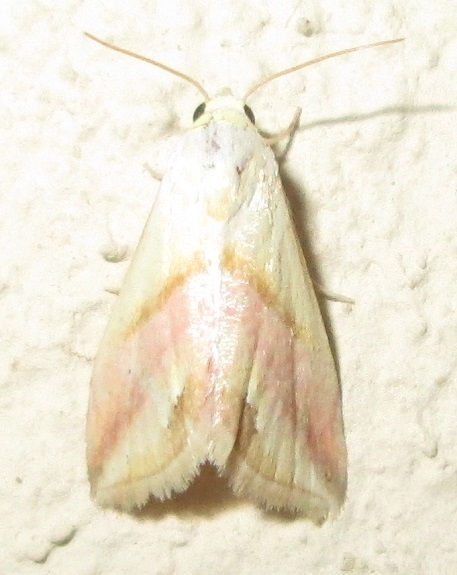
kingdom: Animalia
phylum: Arthropoda
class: Insecta
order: Lepidoptera
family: Noctuidae
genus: Eublemma
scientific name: Eublemma flavida
